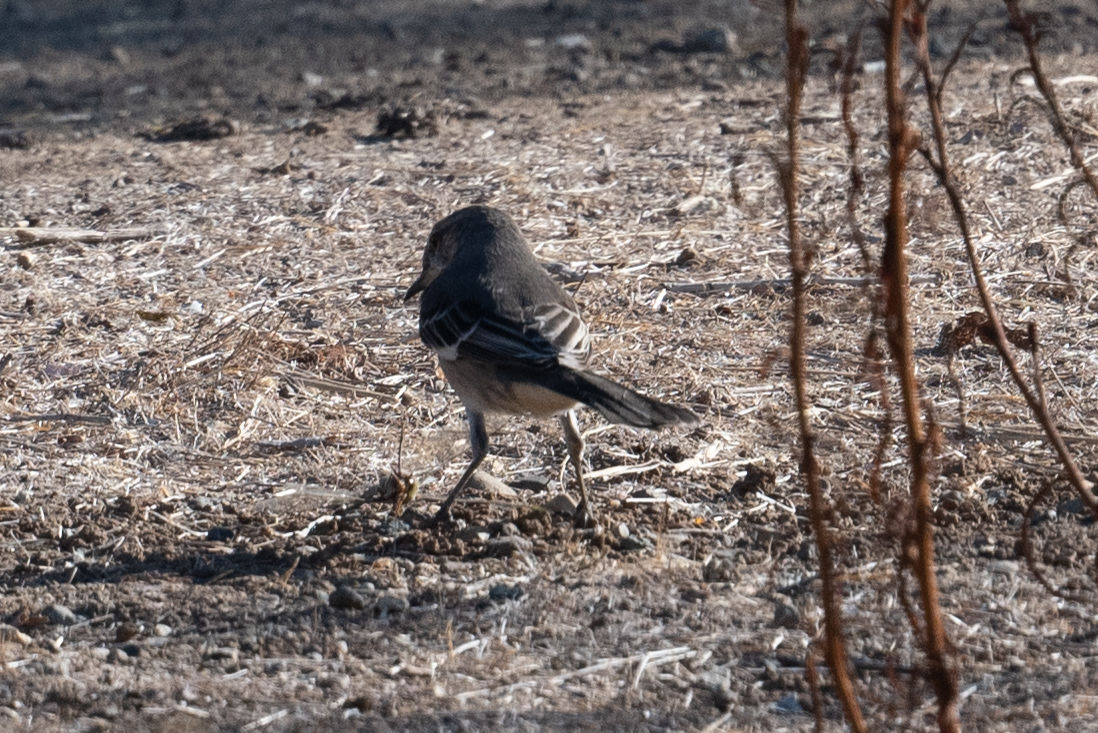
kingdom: Animalia
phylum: Chordata
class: Aves
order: Passeriformes
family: Mimidae
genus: Mimus
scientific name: Mimus polyglottos
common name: Northern mockingbird
